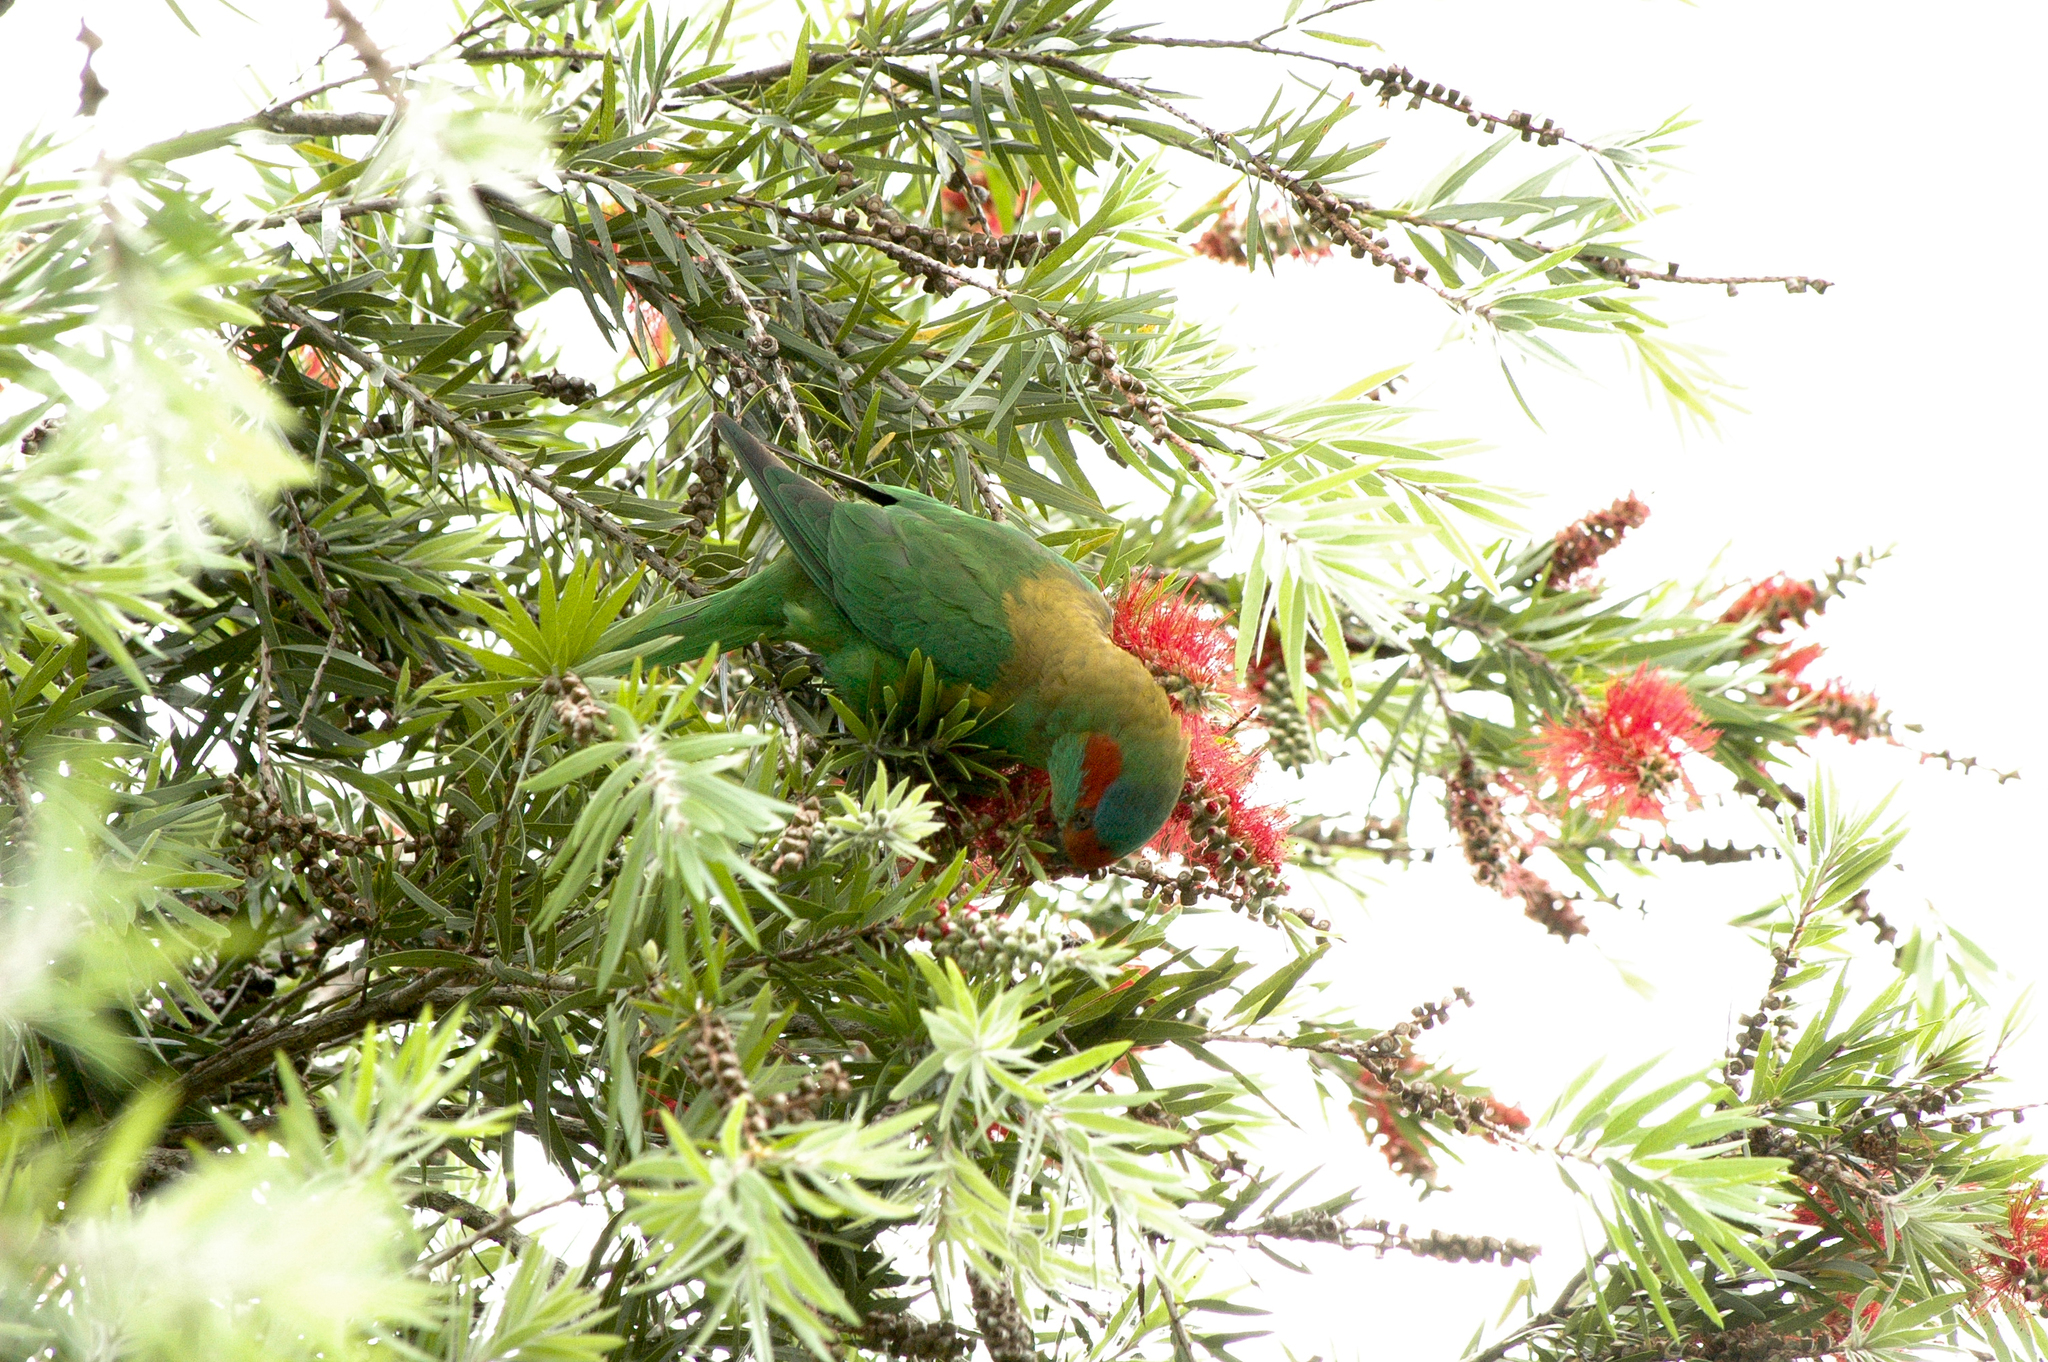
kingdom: Animalia
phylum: Chordata
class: Aves
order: Psittaciformes
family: Psittacidae
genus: Glossopsitta
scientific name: Glossopsitta concinna
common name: Musk lorikeet
